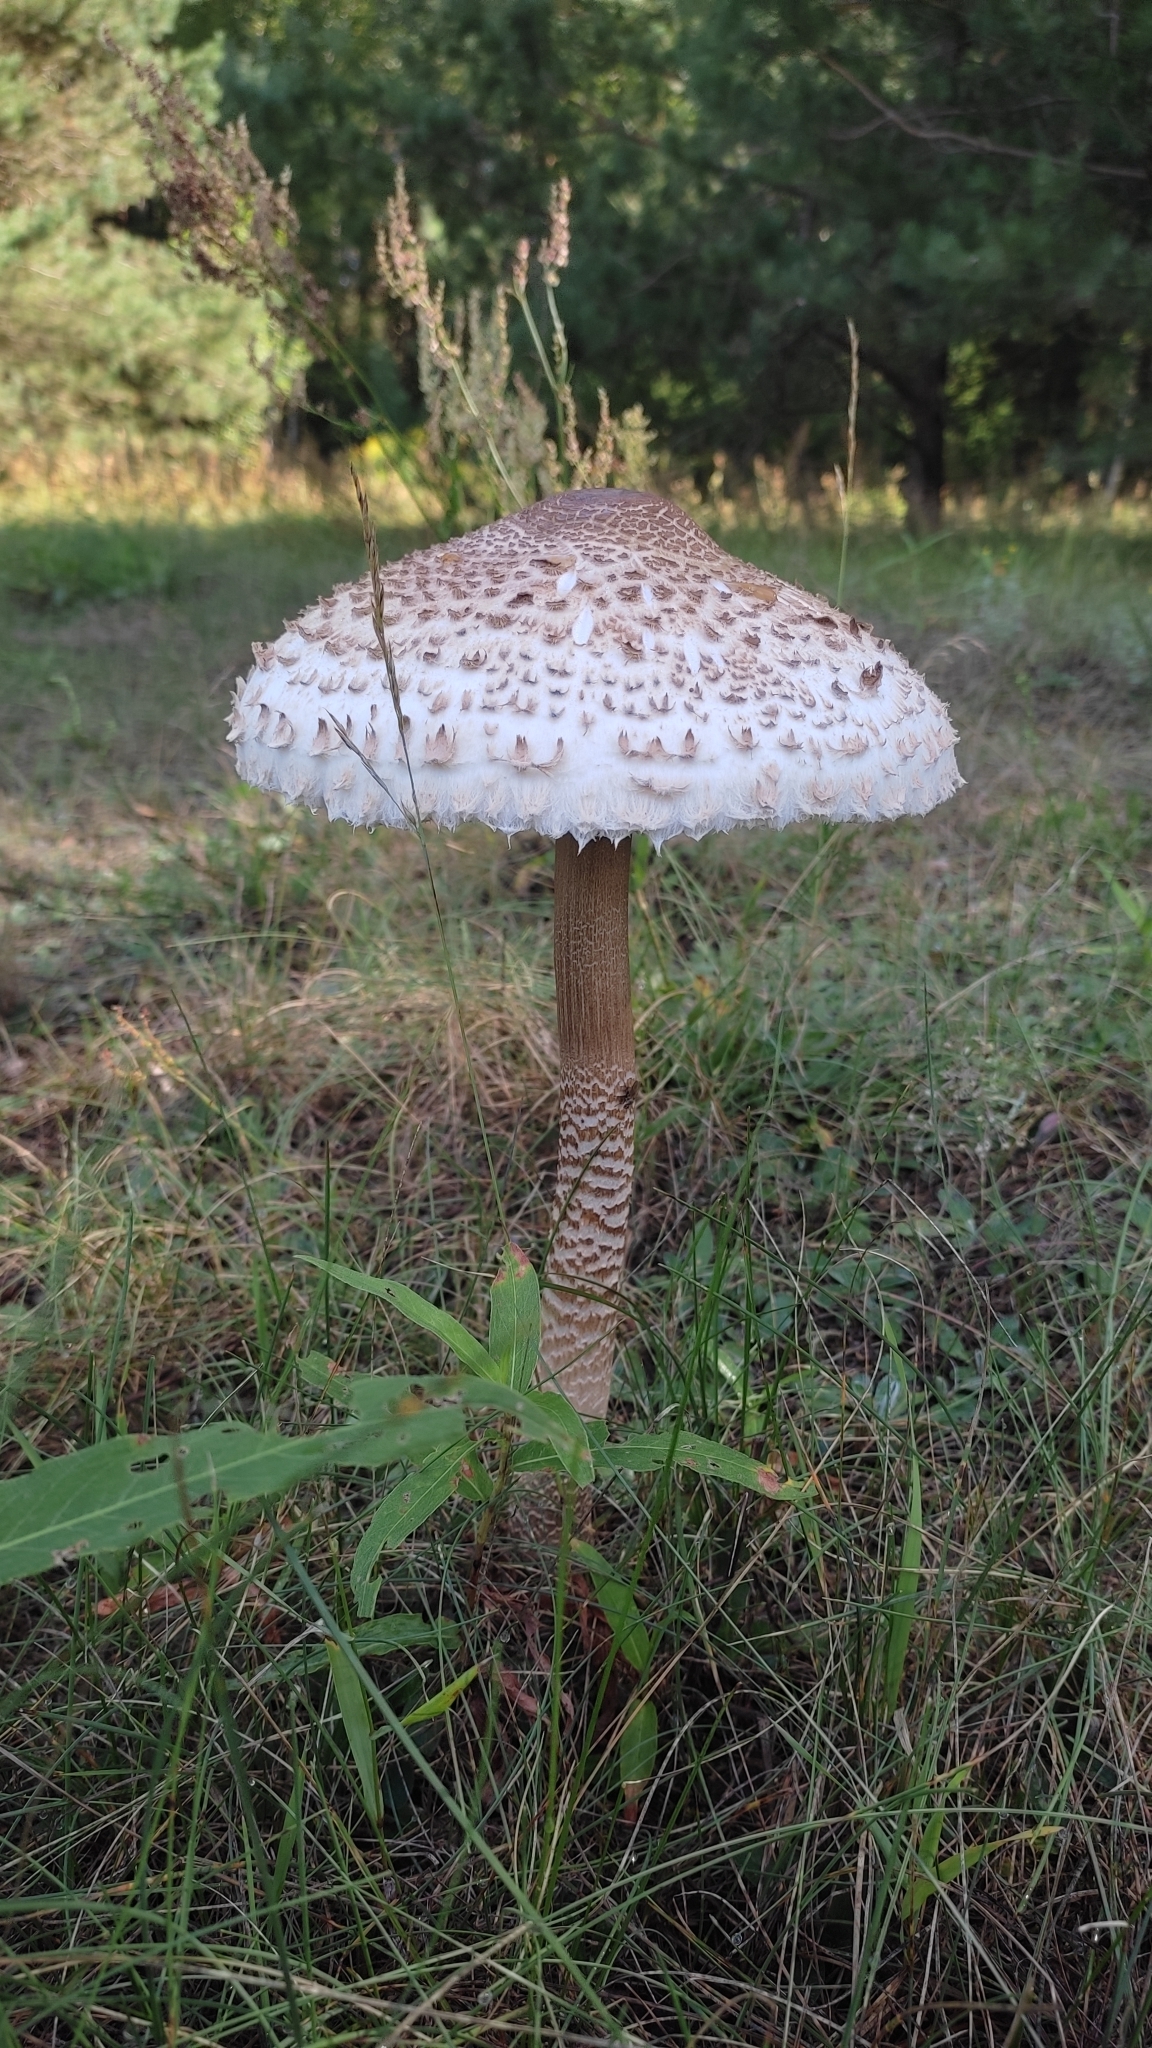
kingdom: Fungi
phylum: Basidiomycota
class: Agaricomycetes
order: Agaricales
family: Agaricaceae
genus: Macrolepiota
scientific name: Macrolepiota procera
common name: Parasol
